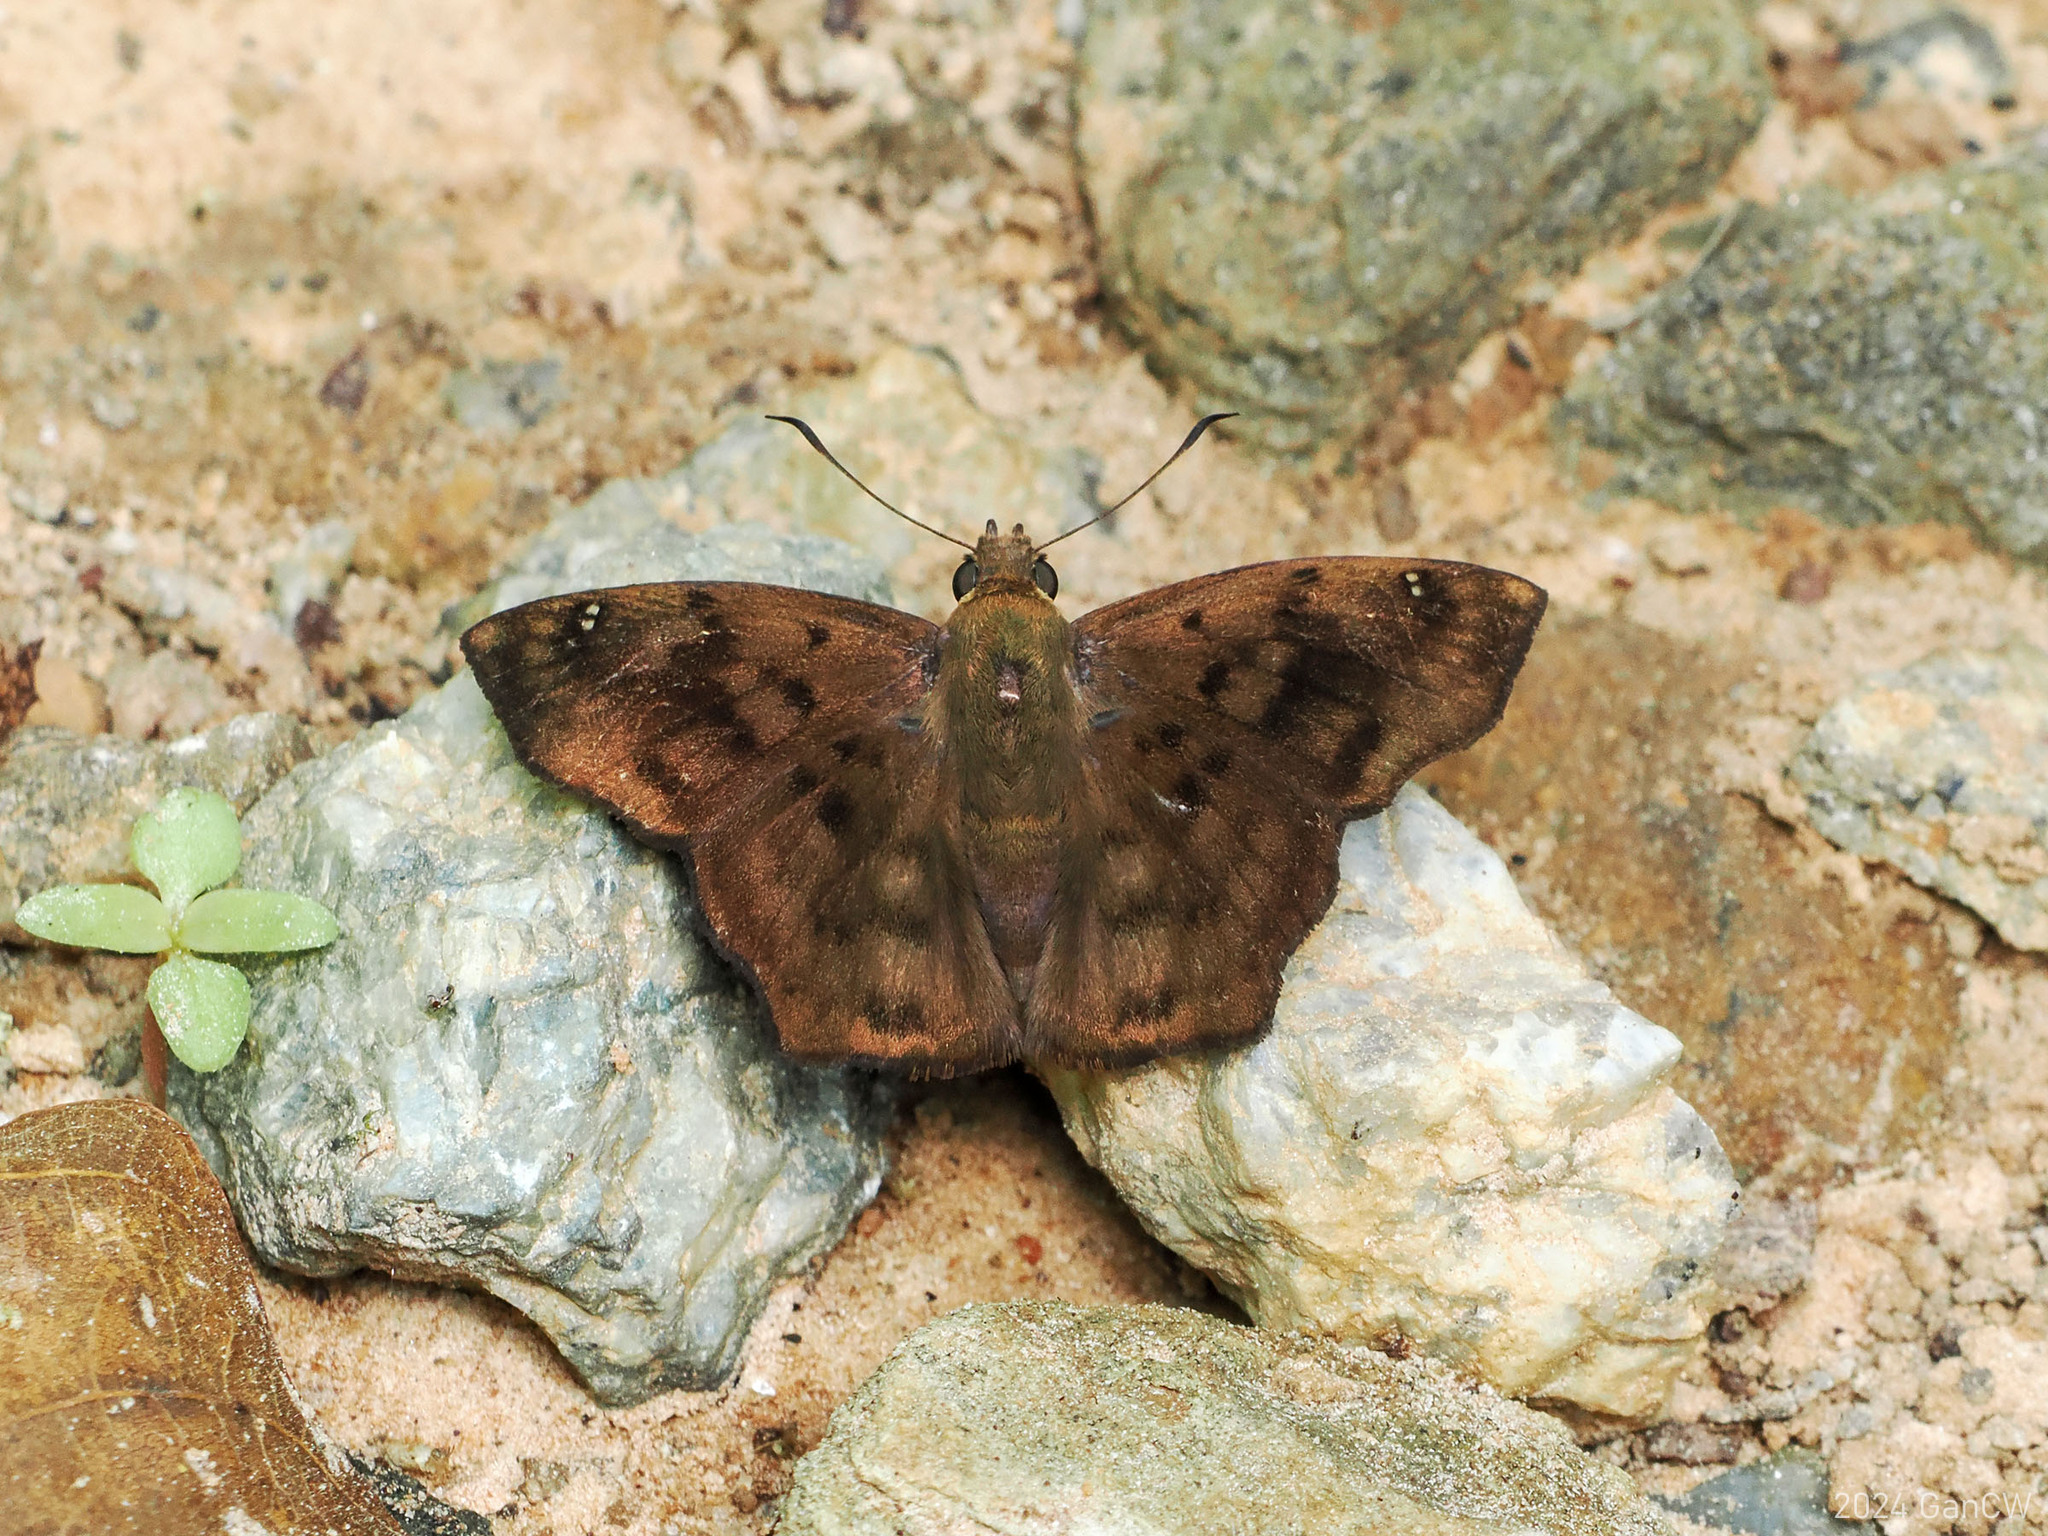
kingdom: Animalia
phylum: Arthropoda
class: Insecta
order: Lepidoptera
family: Hesperiidae
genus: Tapena
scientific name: Tapena thwaitesi
